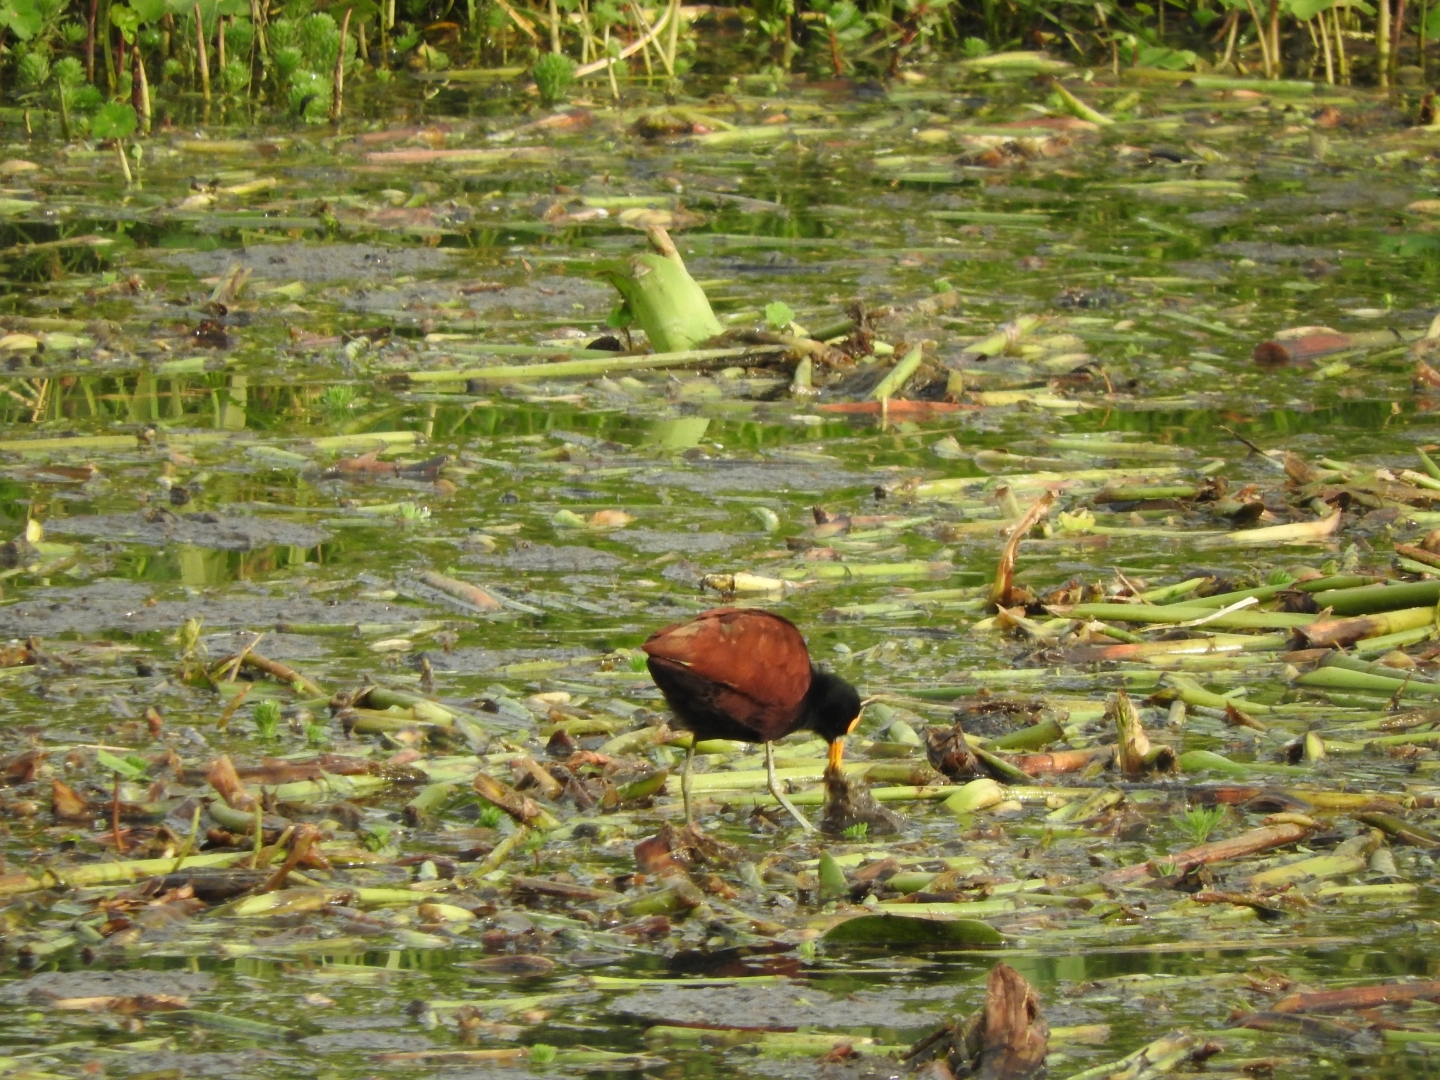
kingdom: Animalia
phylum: Chordata
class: Aves
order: Charadriiformes
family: Jacanidae
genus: Jacana
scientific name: Jacana spinosa
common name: Northern jacana
